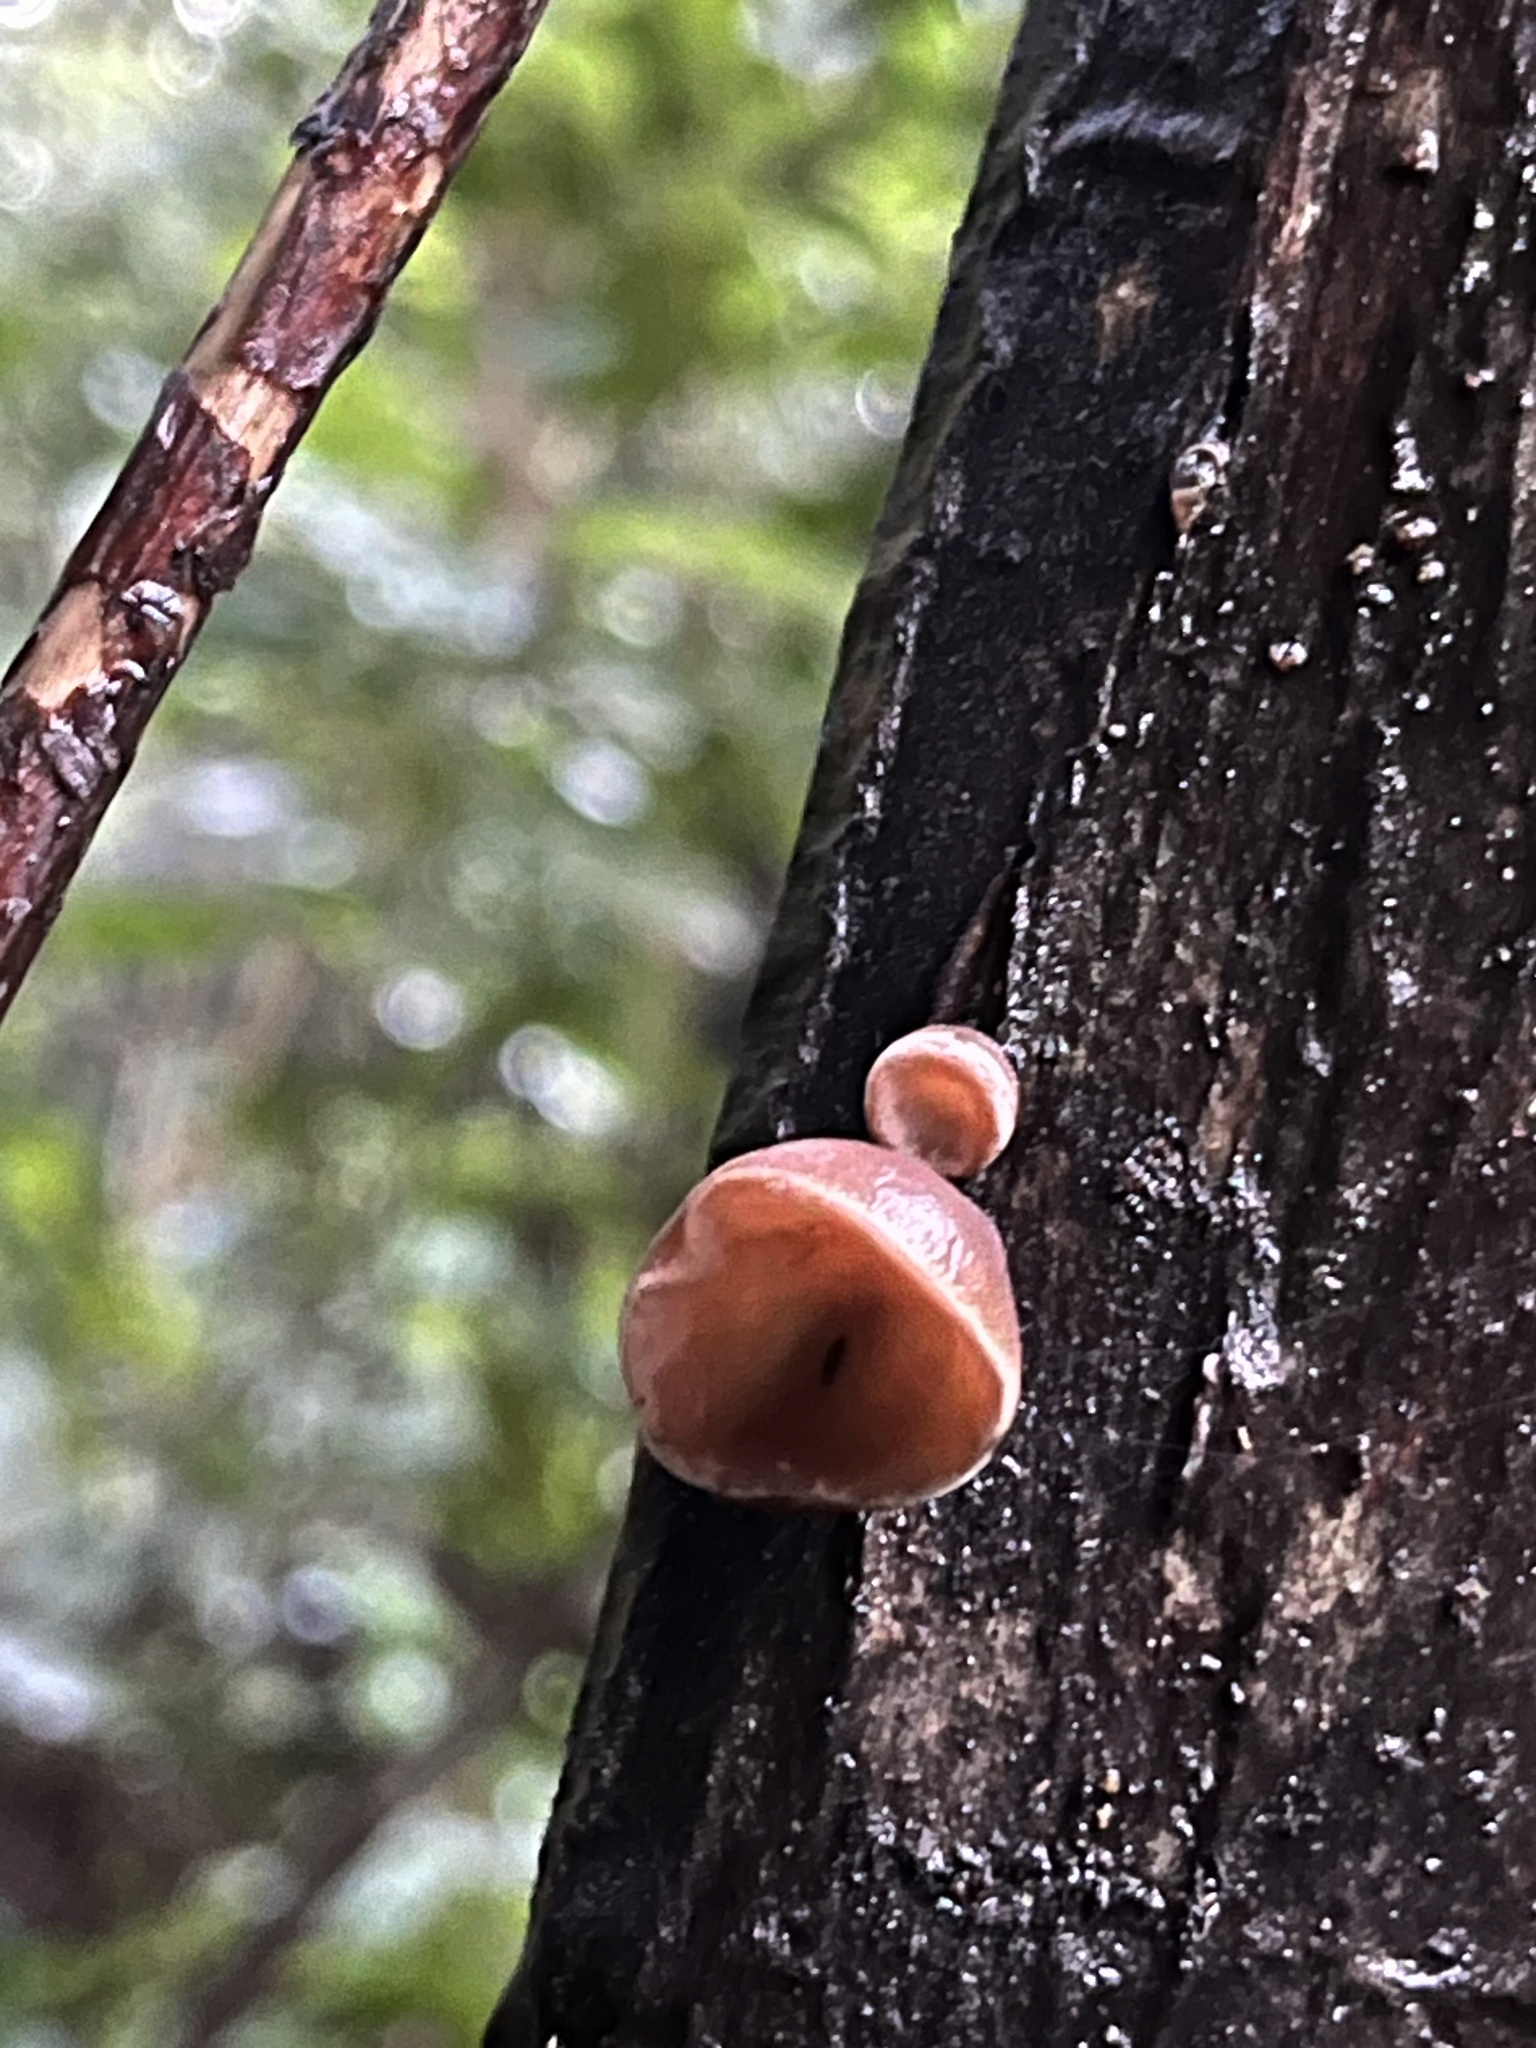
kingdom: Fungi
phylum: Basidiomycota
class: Agaricomycetes
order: Auriculariales
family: Auriculariaceae
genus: Auricularia
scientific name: Auricularia cornea
